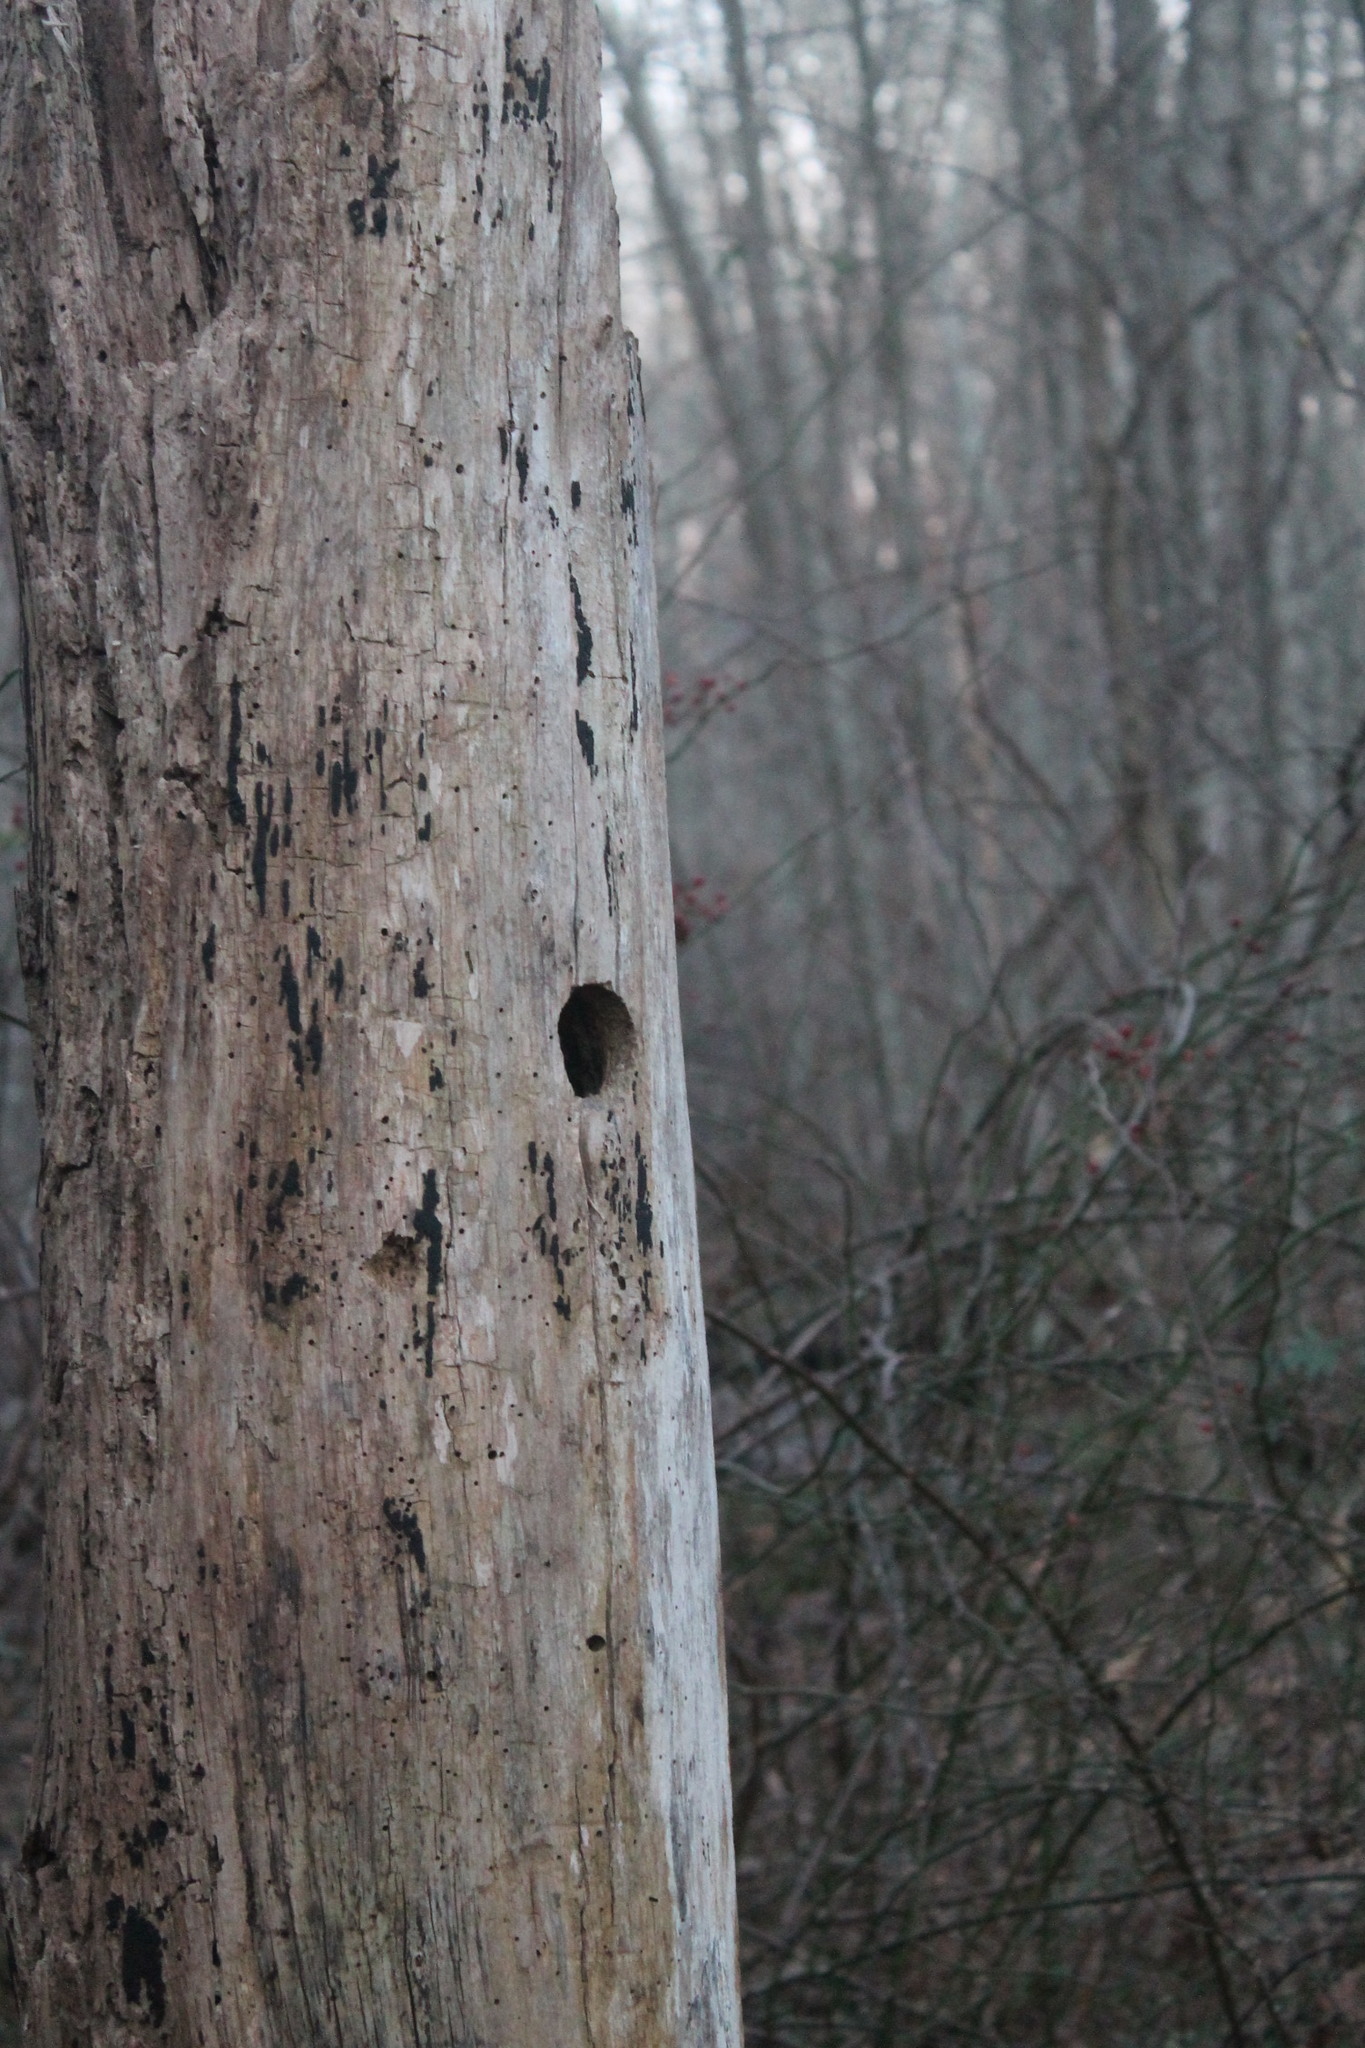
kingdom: Animalia
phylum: Chordata
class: Aves
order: Piciformes
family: Picidae
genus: Dryobates
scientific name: Dryobates pubescens
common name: Downy woodpecker
